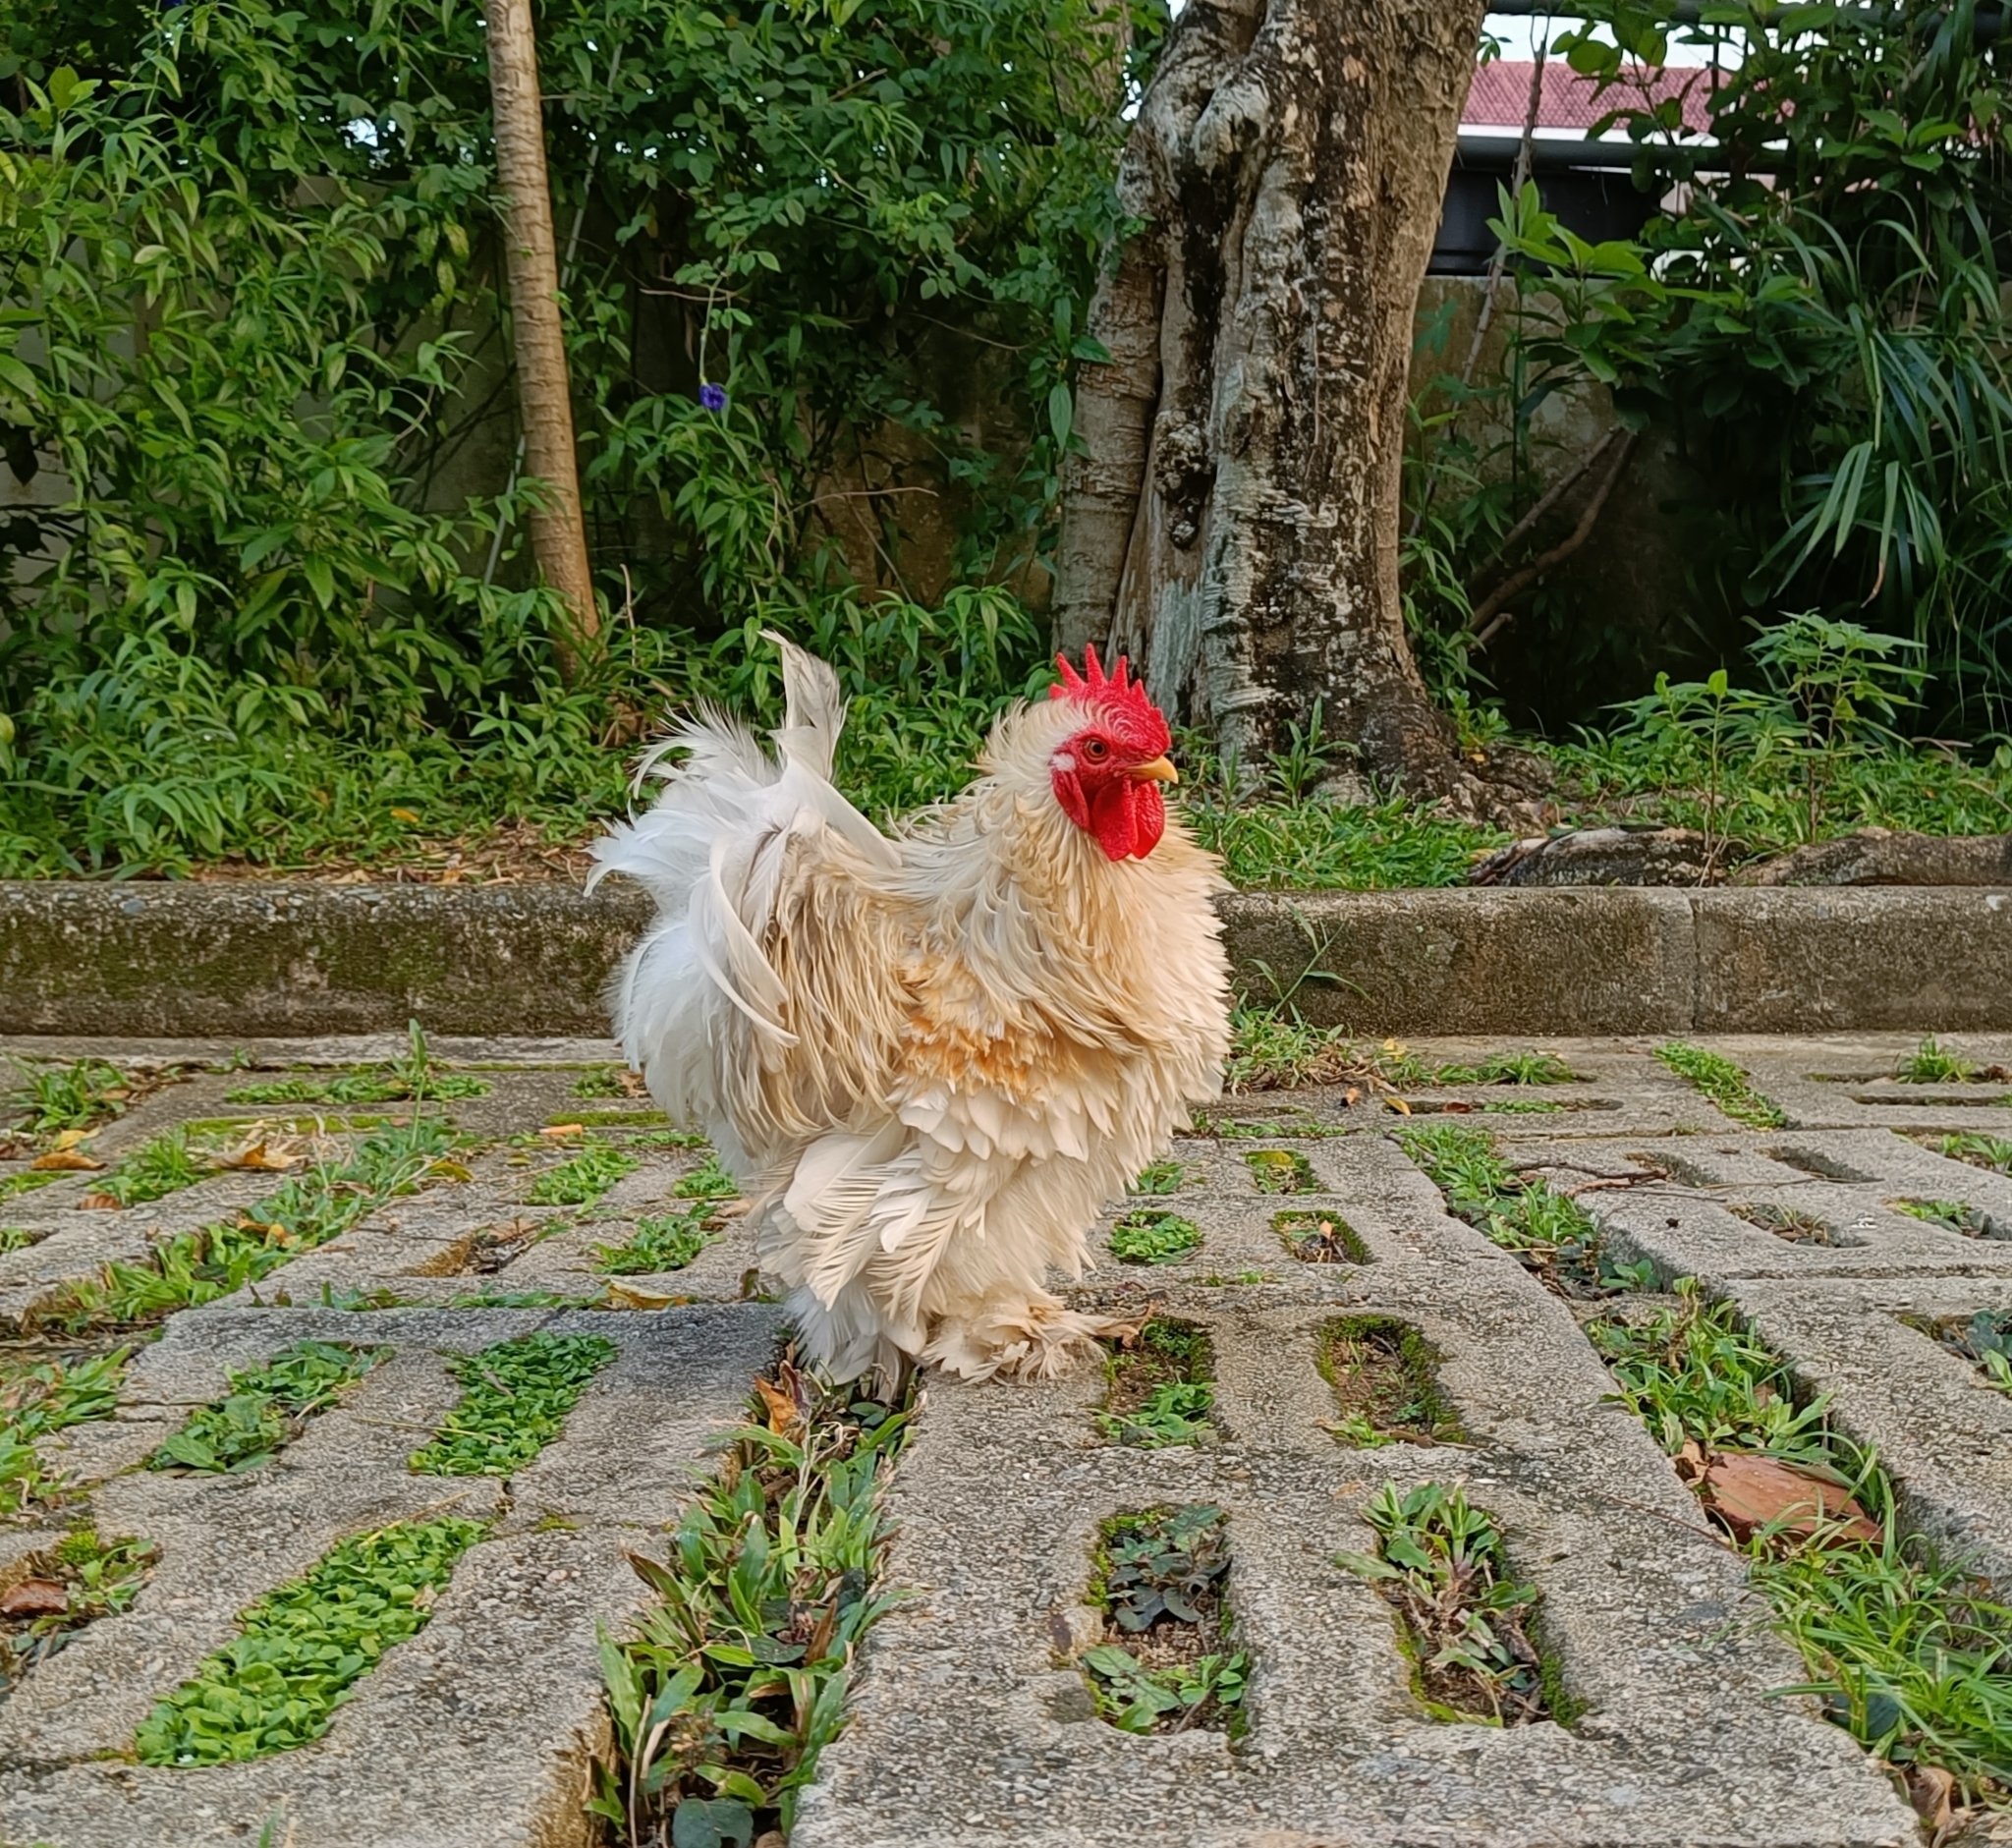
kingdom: Animalia
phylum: Chordata
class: Aves
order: Galliformes
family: Phasianidae
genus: Gallus
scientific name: Gallus gallus
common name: Red junglefowl
